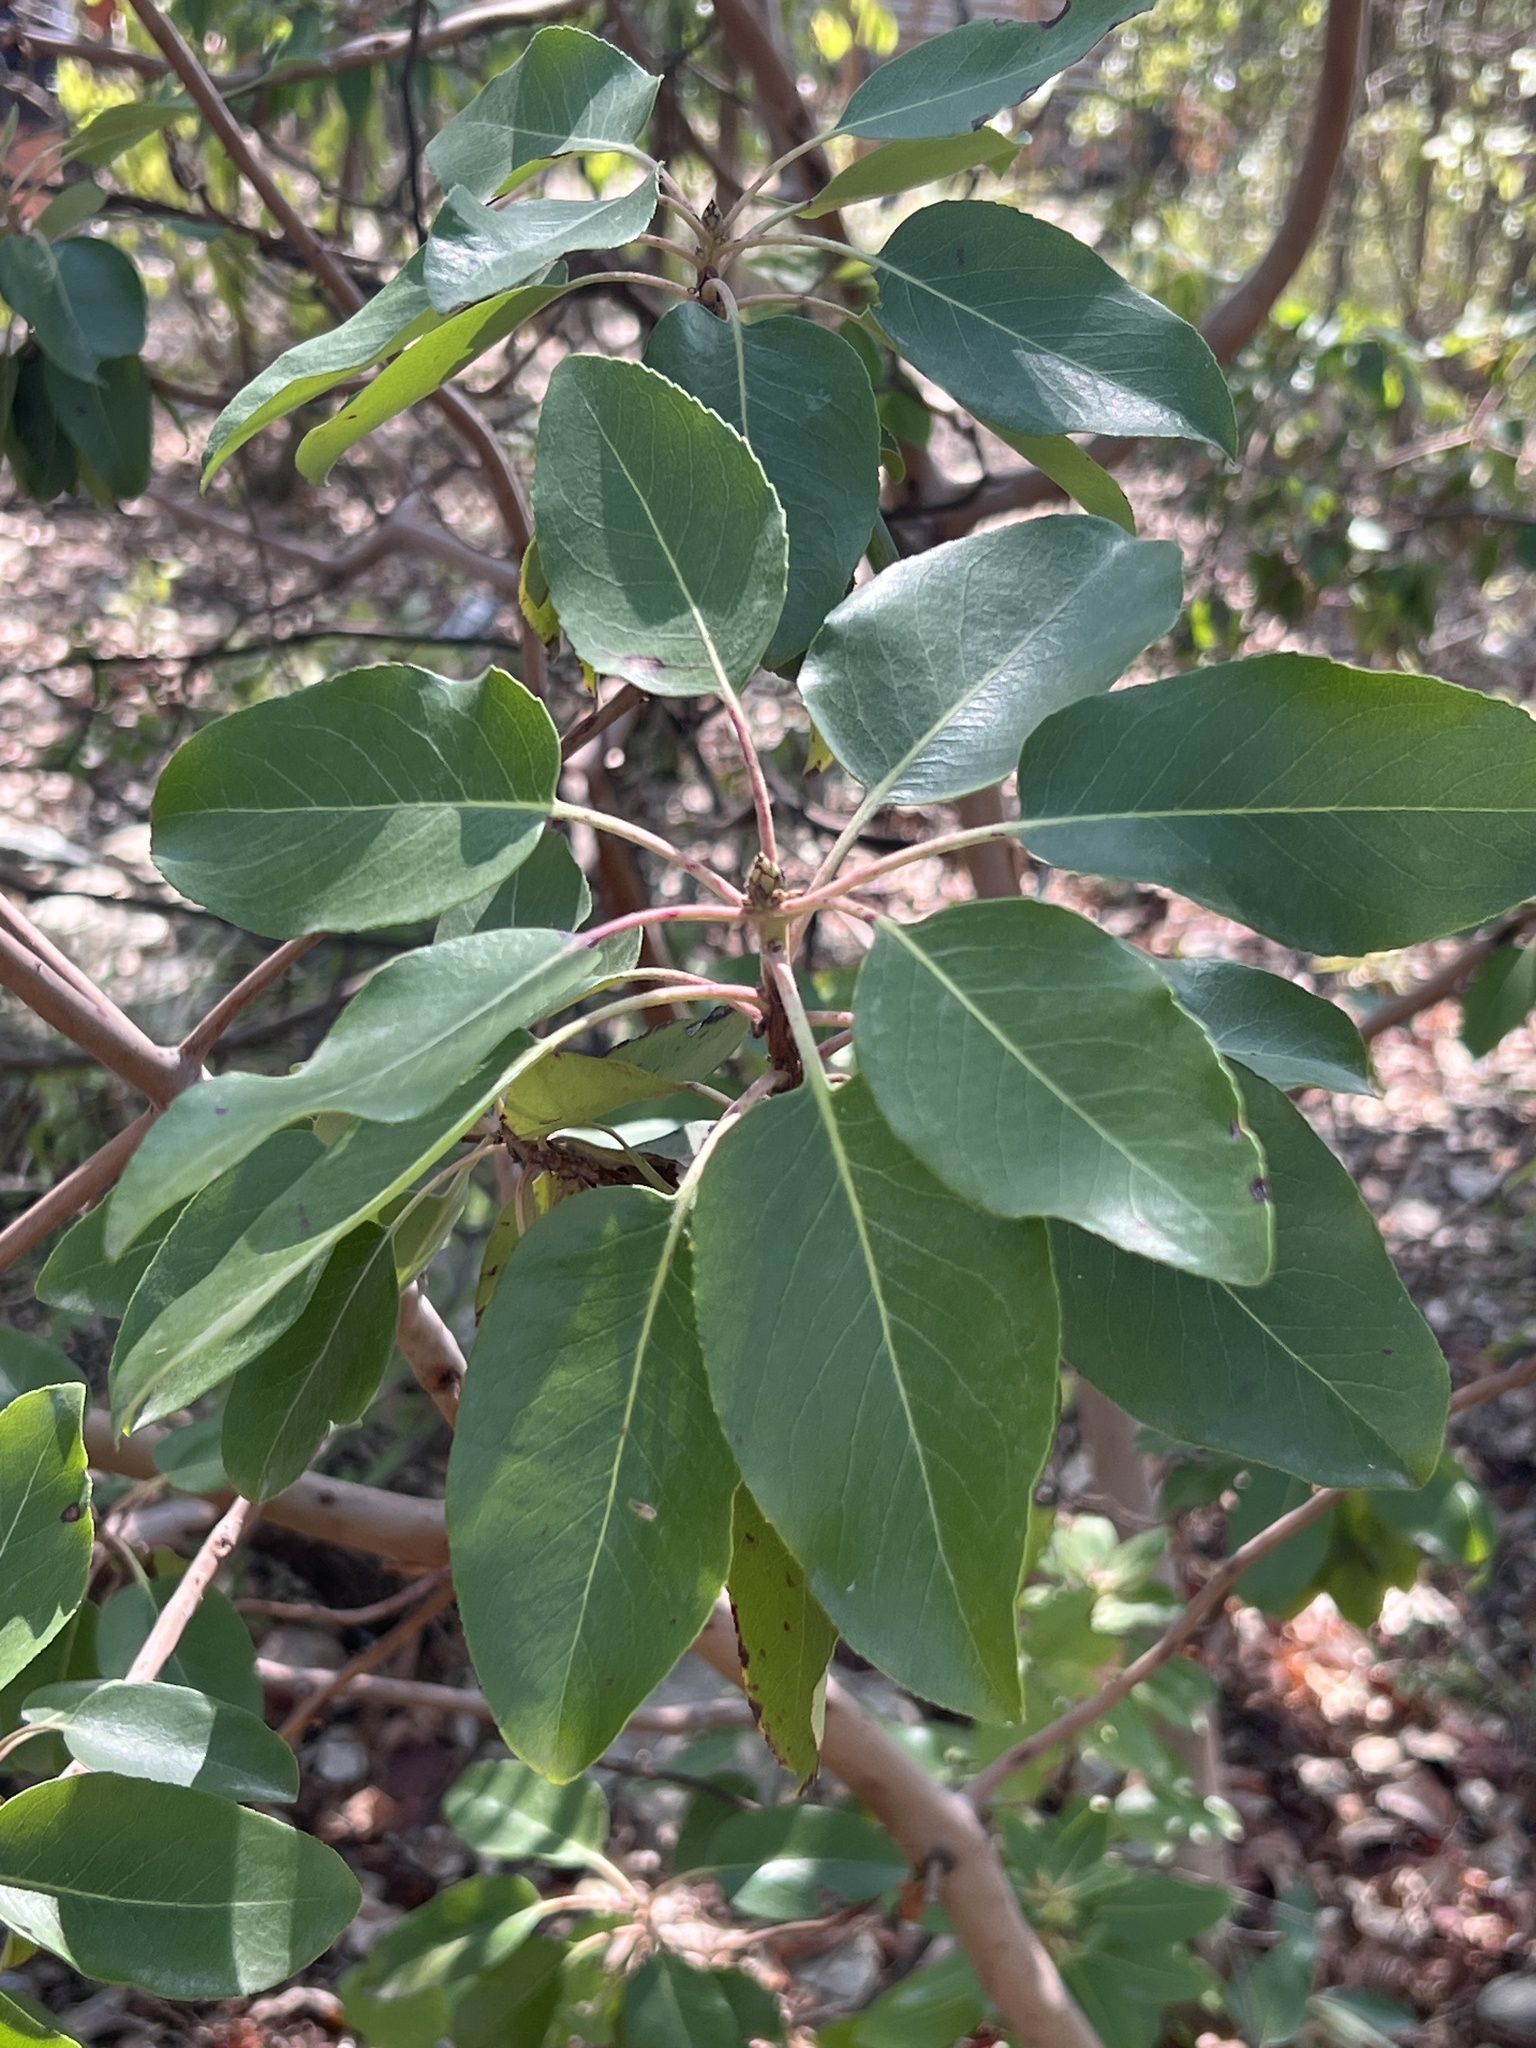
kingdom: Plantae
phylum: Tracheophyta
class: Magnoliopsida
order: Ericales
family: Ericaceae
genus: Arbutus
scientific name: Arbutus xalapensis
